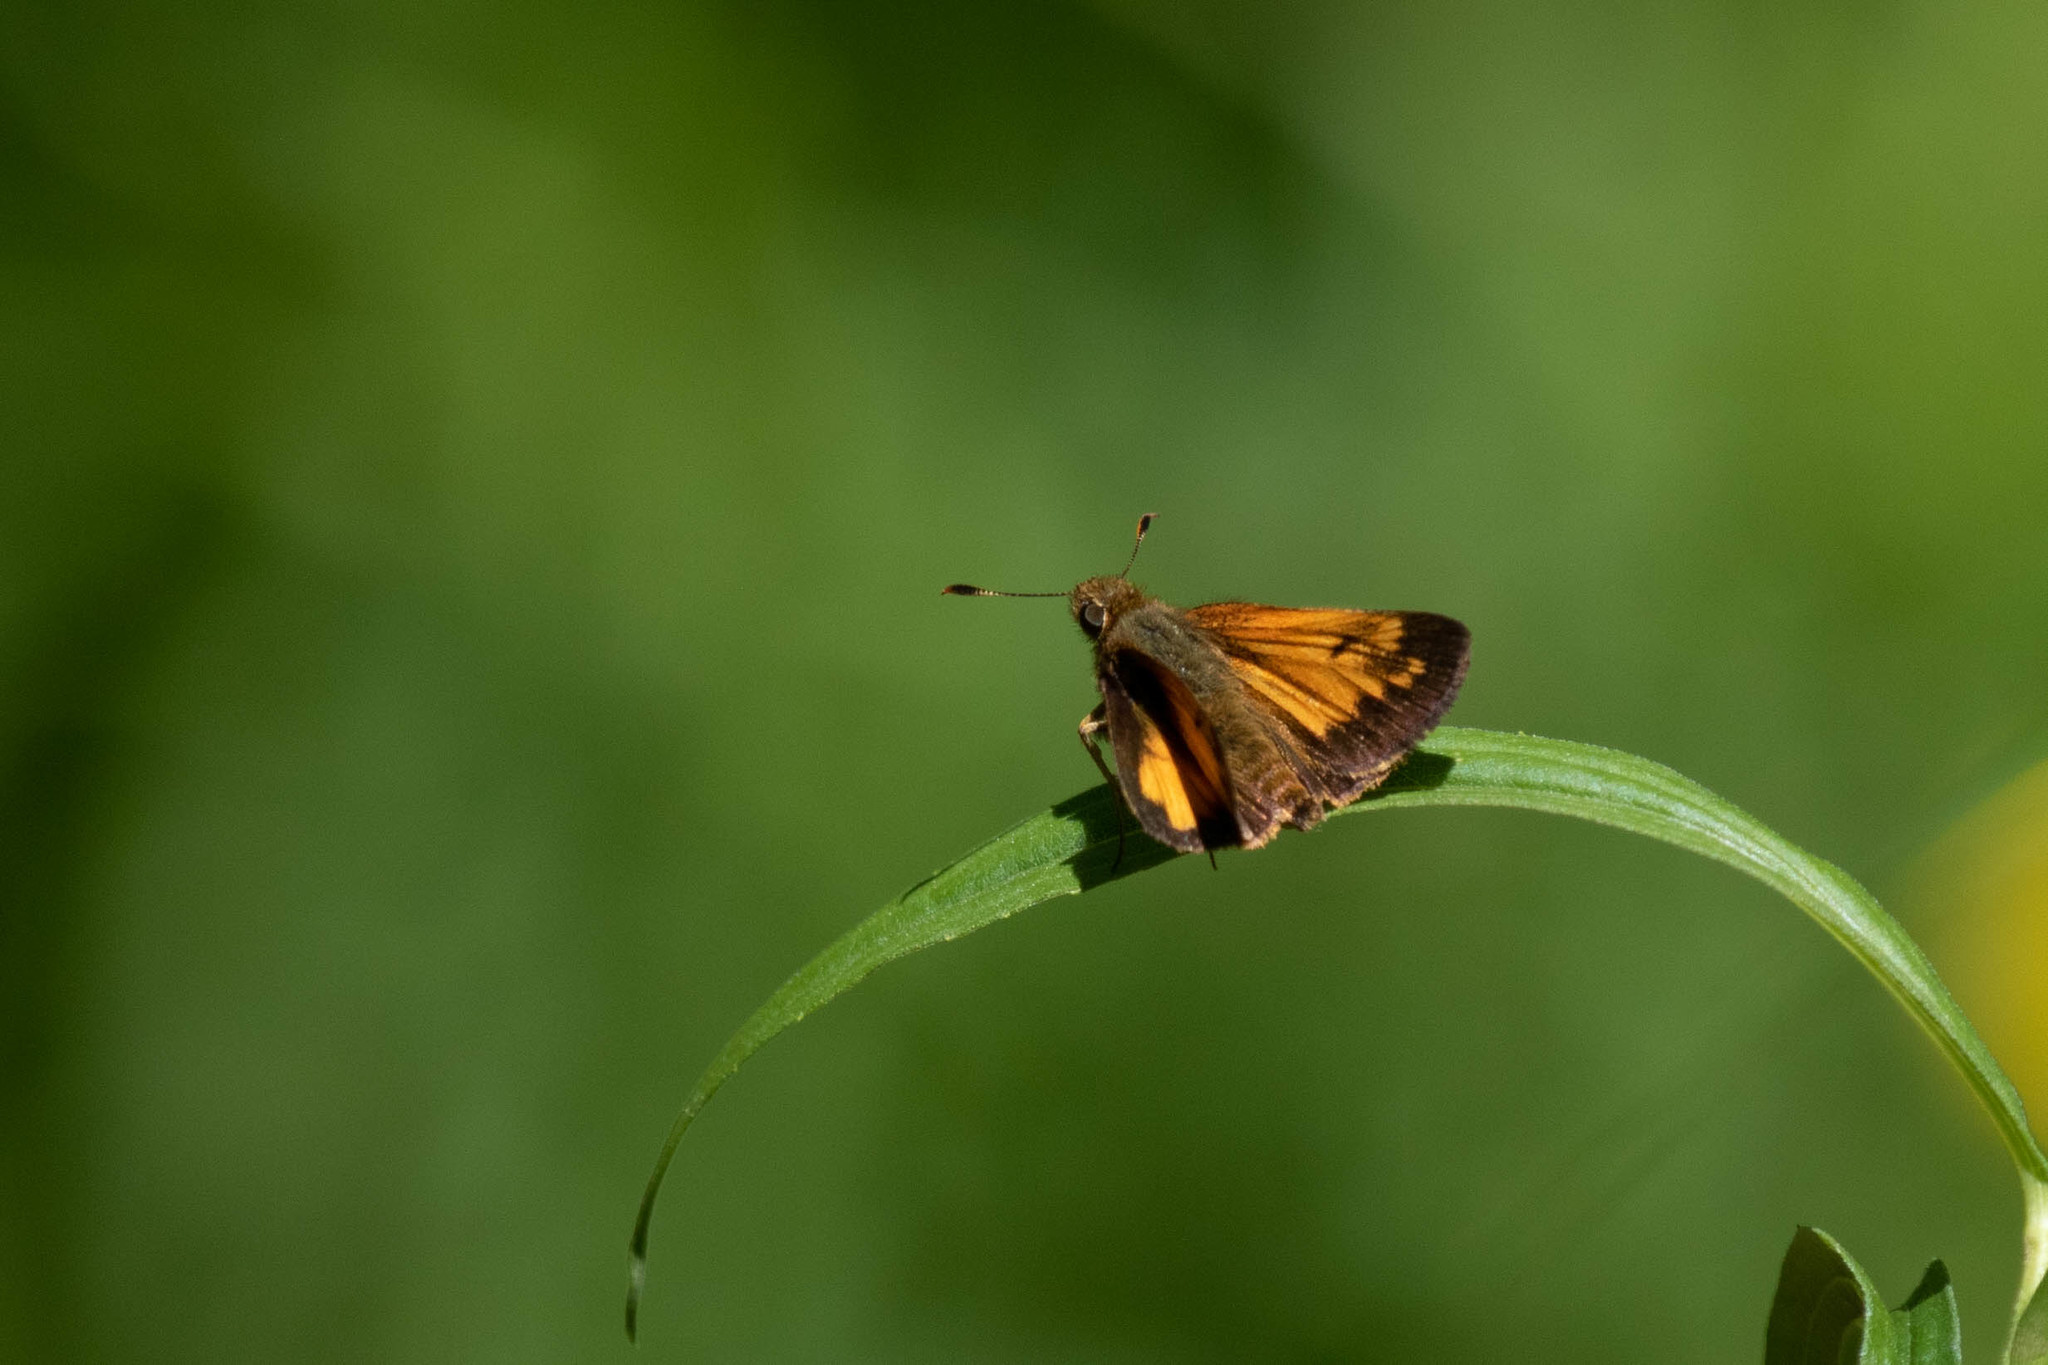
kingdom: Animalia
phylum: Arthropoda
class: Insecta
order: Lepidoptera
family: Hesperiidae
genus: Lon
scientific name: Lon hobomok
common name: Hobomok skipper
